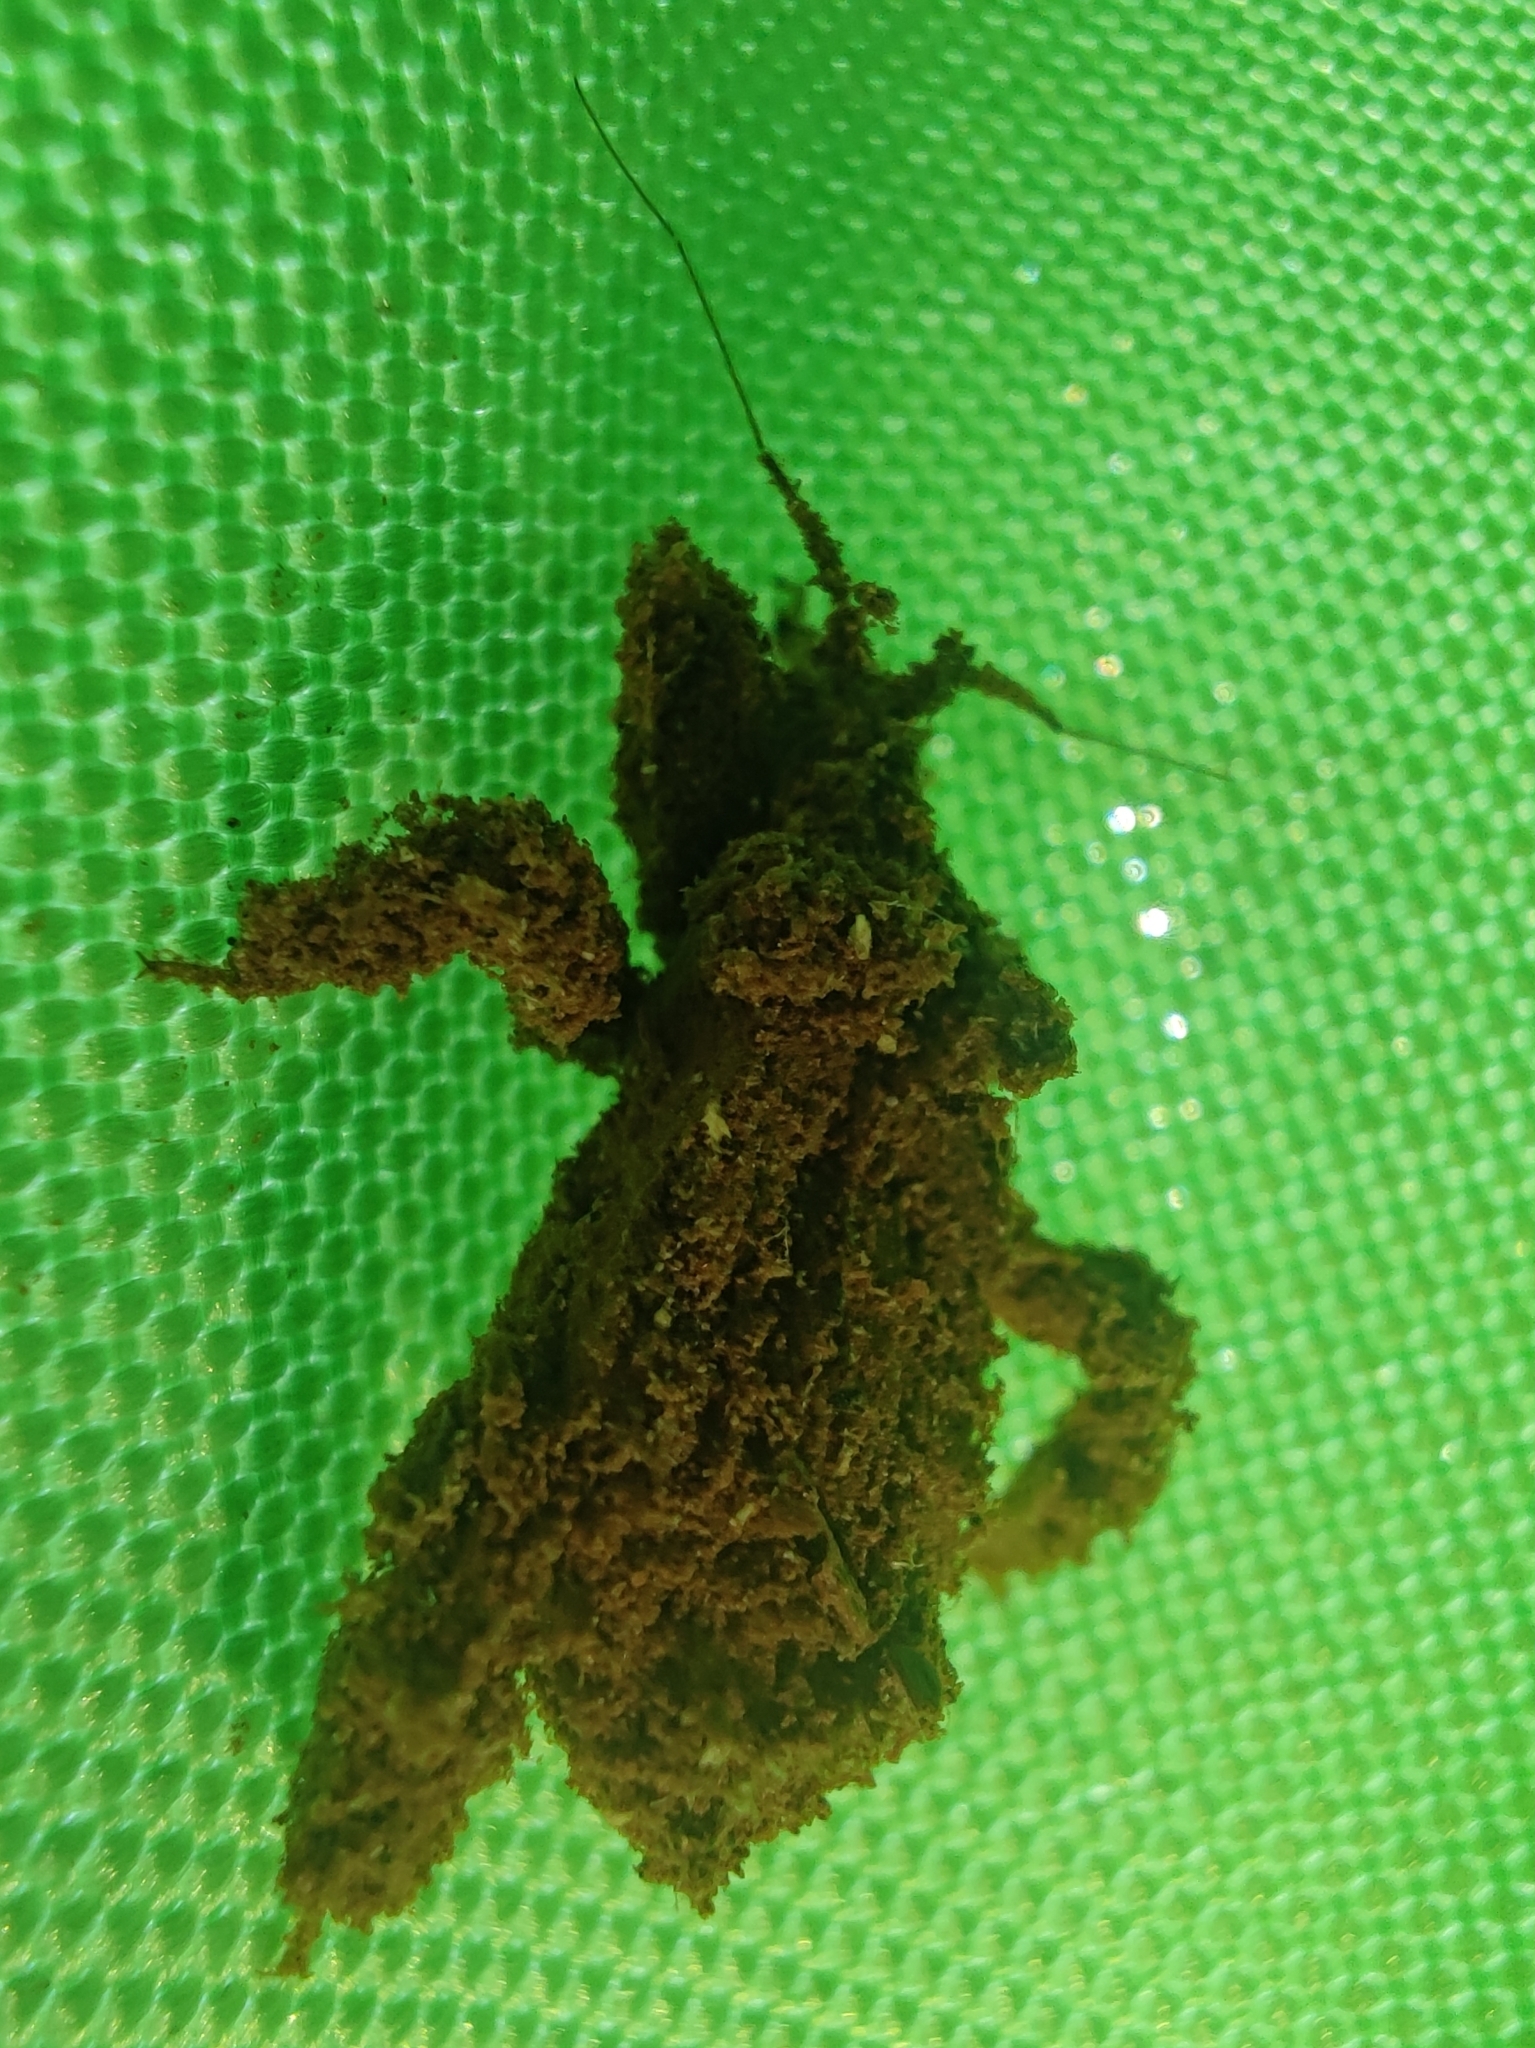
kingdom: Animalia
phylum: Arthropoda
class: Insecta
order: Hemiptera
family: Reduviidae
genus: Reduvius
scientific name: Reduvius personatus
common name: Masked hunter
